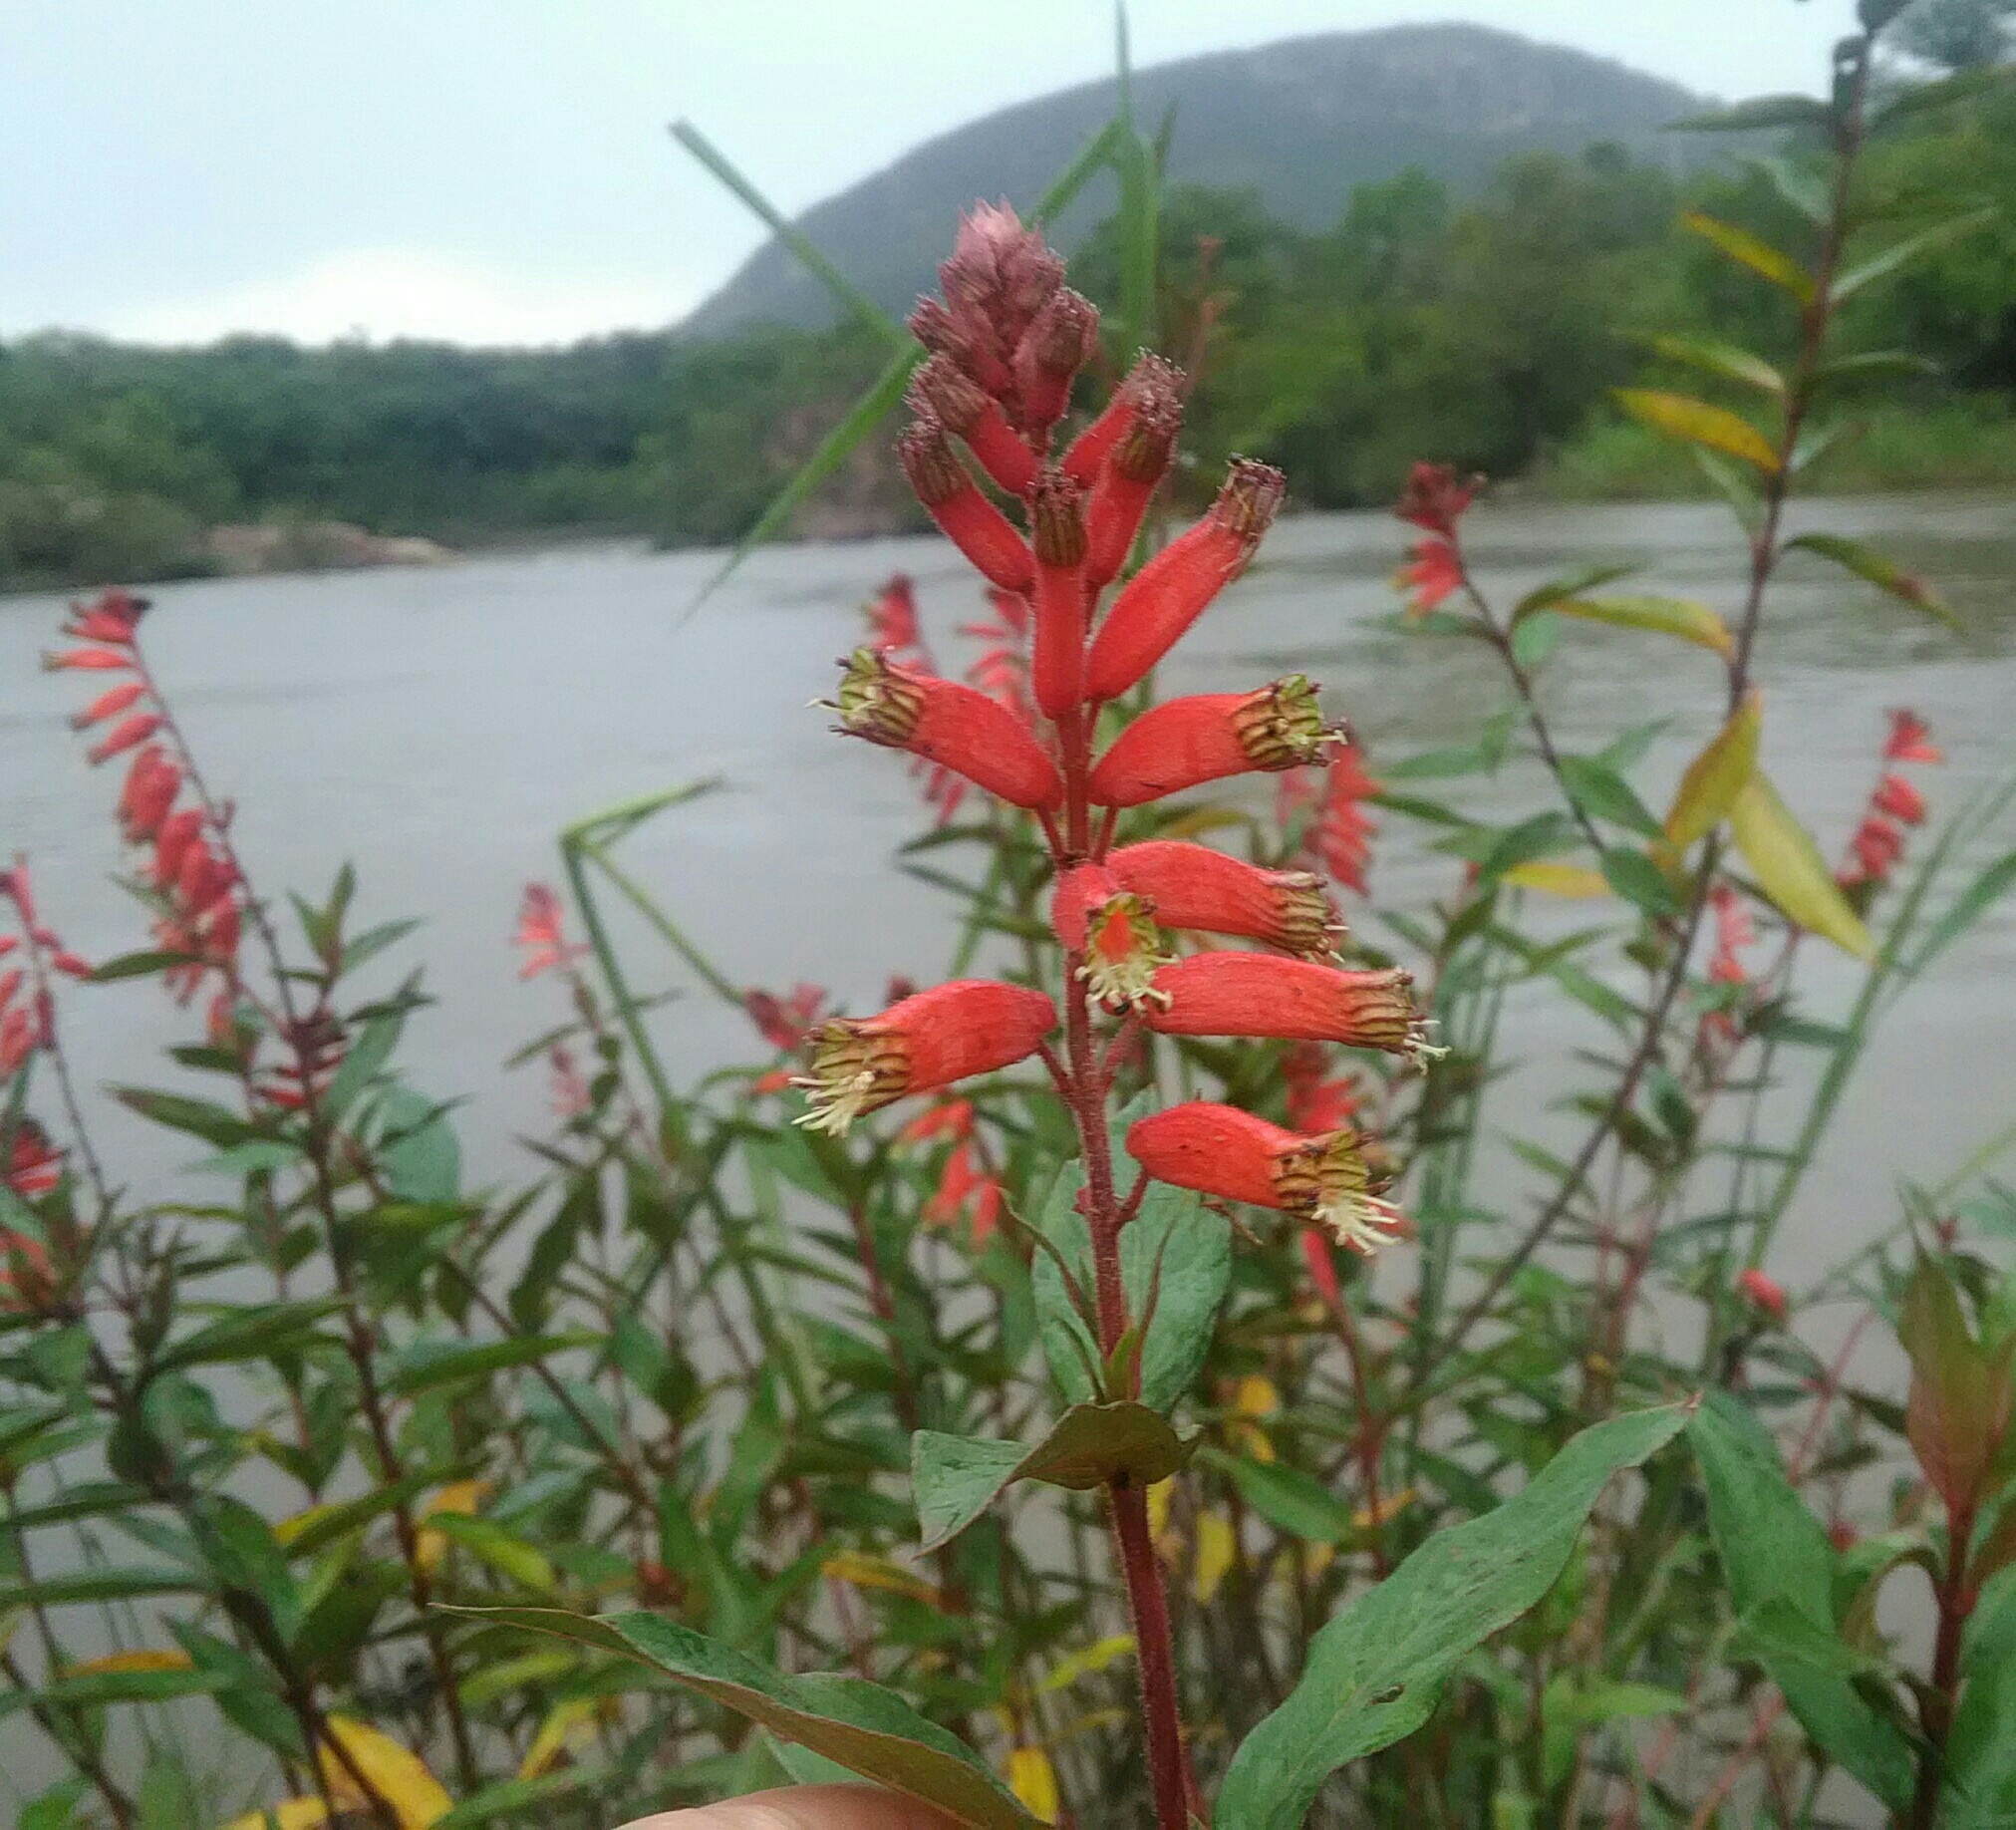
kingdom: Plantae
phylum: Tracheophyta
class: Magnoliopsida
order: Myrtales
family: Lythraceae
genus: Cuphea
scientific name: Cuphea melvilla
